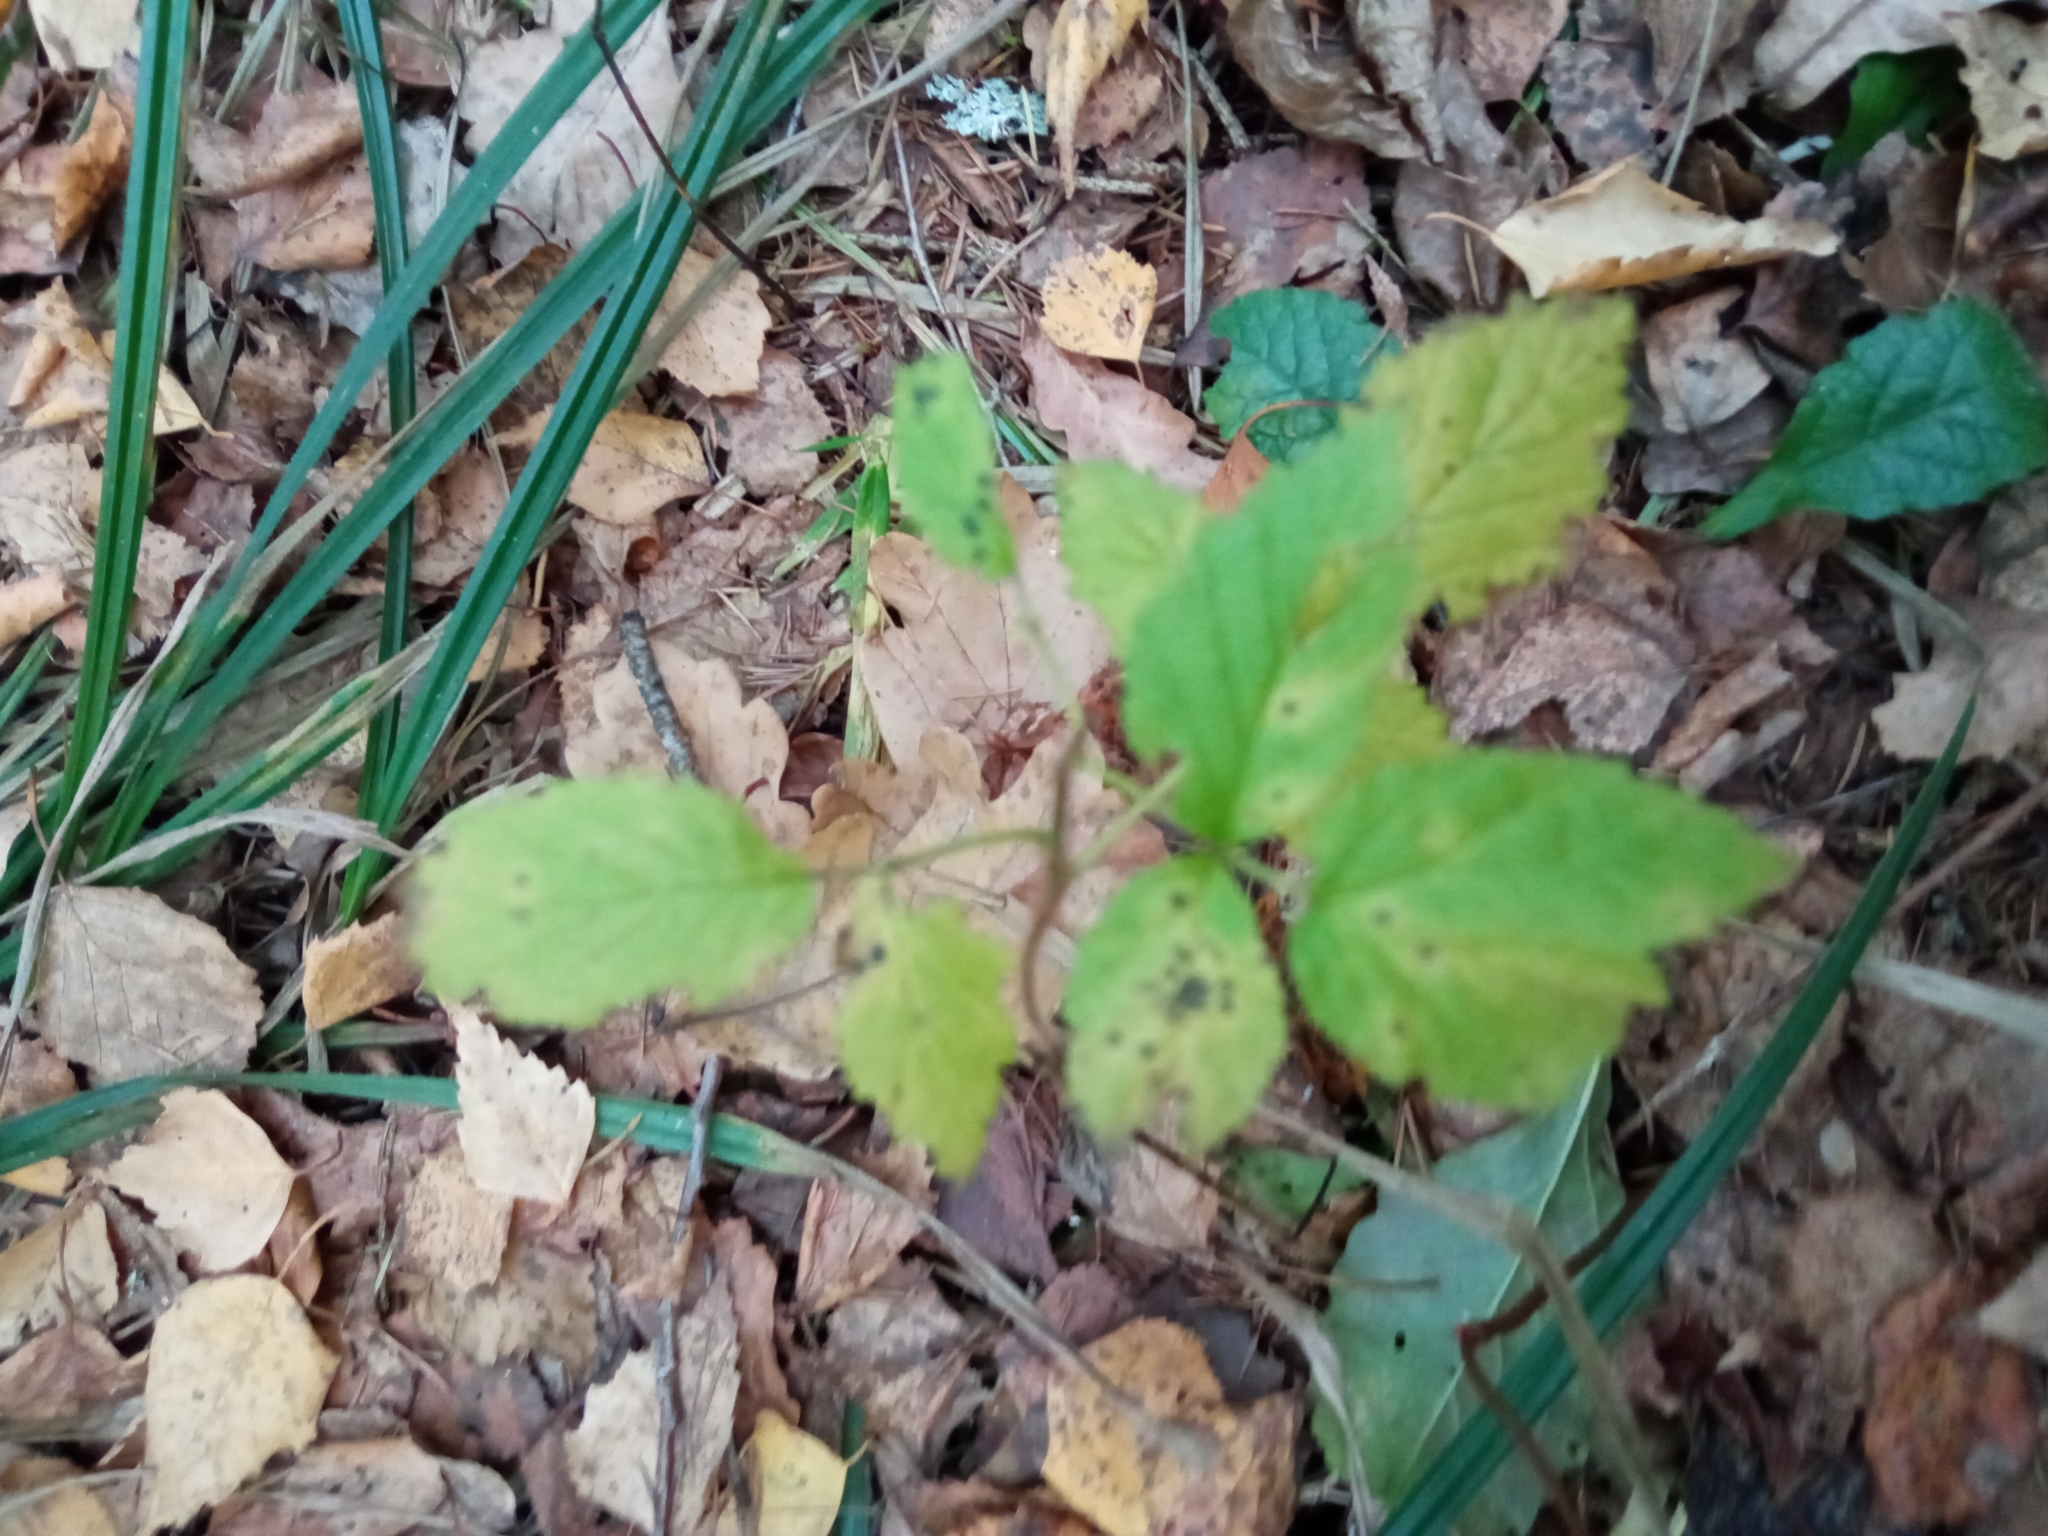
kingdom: Plantae
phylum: Tracheophyta
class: Magnoliopsida
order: Rosales
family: Rosaceae
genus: Rubus
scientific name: Rubus idaeus
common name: Raspberry
